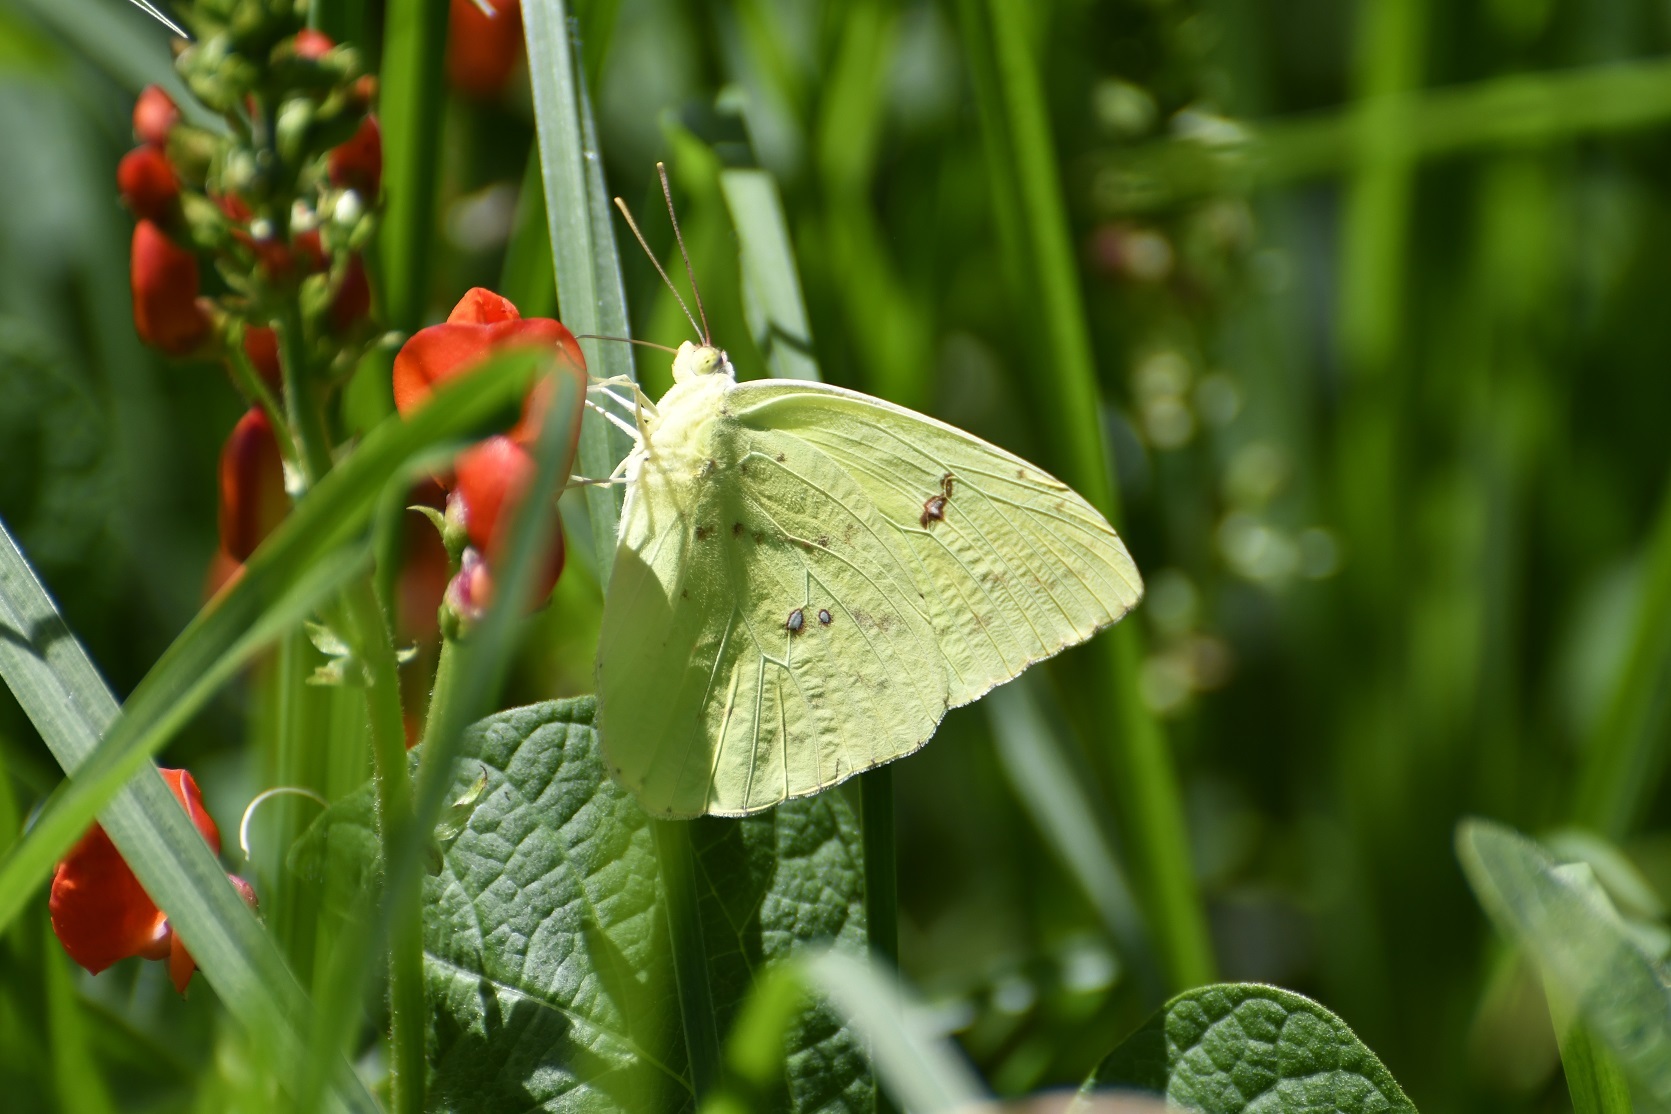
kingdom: Animalia
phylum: Arthropoda
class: Insecta
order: Lepidoptera
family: Pieridae
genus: Phoebis
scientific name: Phoebis marcellina
